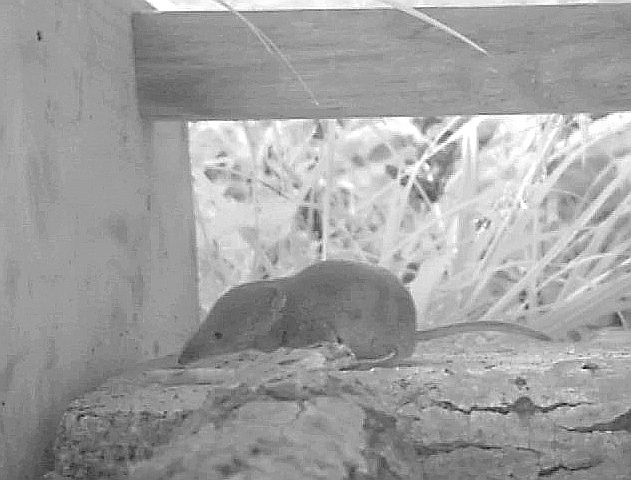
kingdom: Animalia
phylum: Chordata
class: Mammalia
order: Soricomorpha
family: Soricidae
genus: Sorex
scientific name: Sorex minutus
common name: Eurasian pygmy shrew
